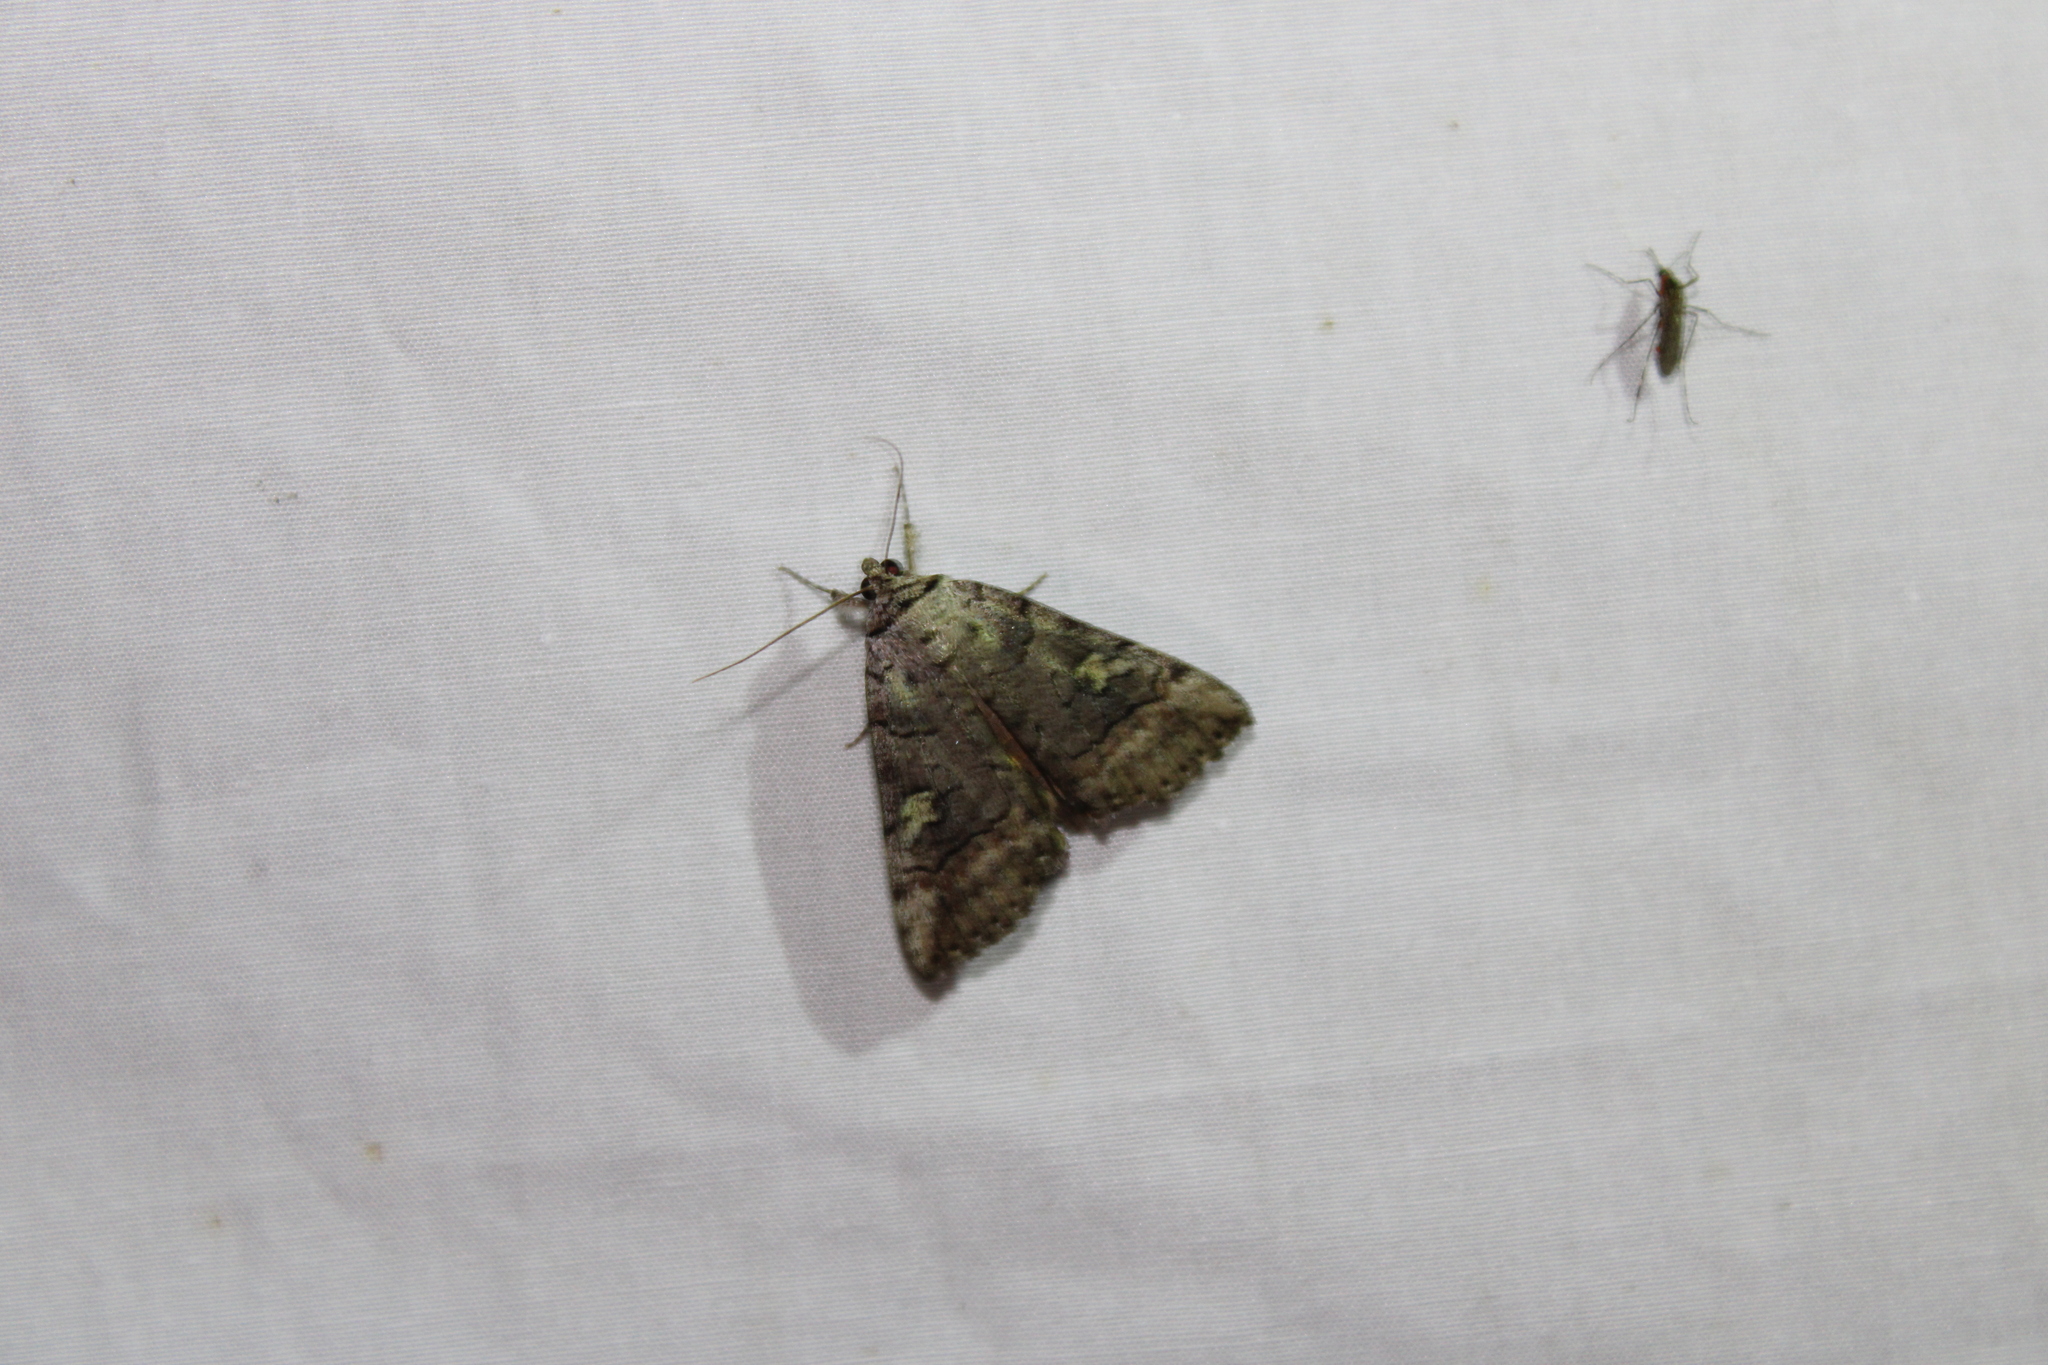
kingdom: Animalia
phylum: Arthropoda
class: Insecta
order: Lepidoptera
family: Erebidae
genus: Catocala
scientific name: Catocala similis
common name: Similar underwing
